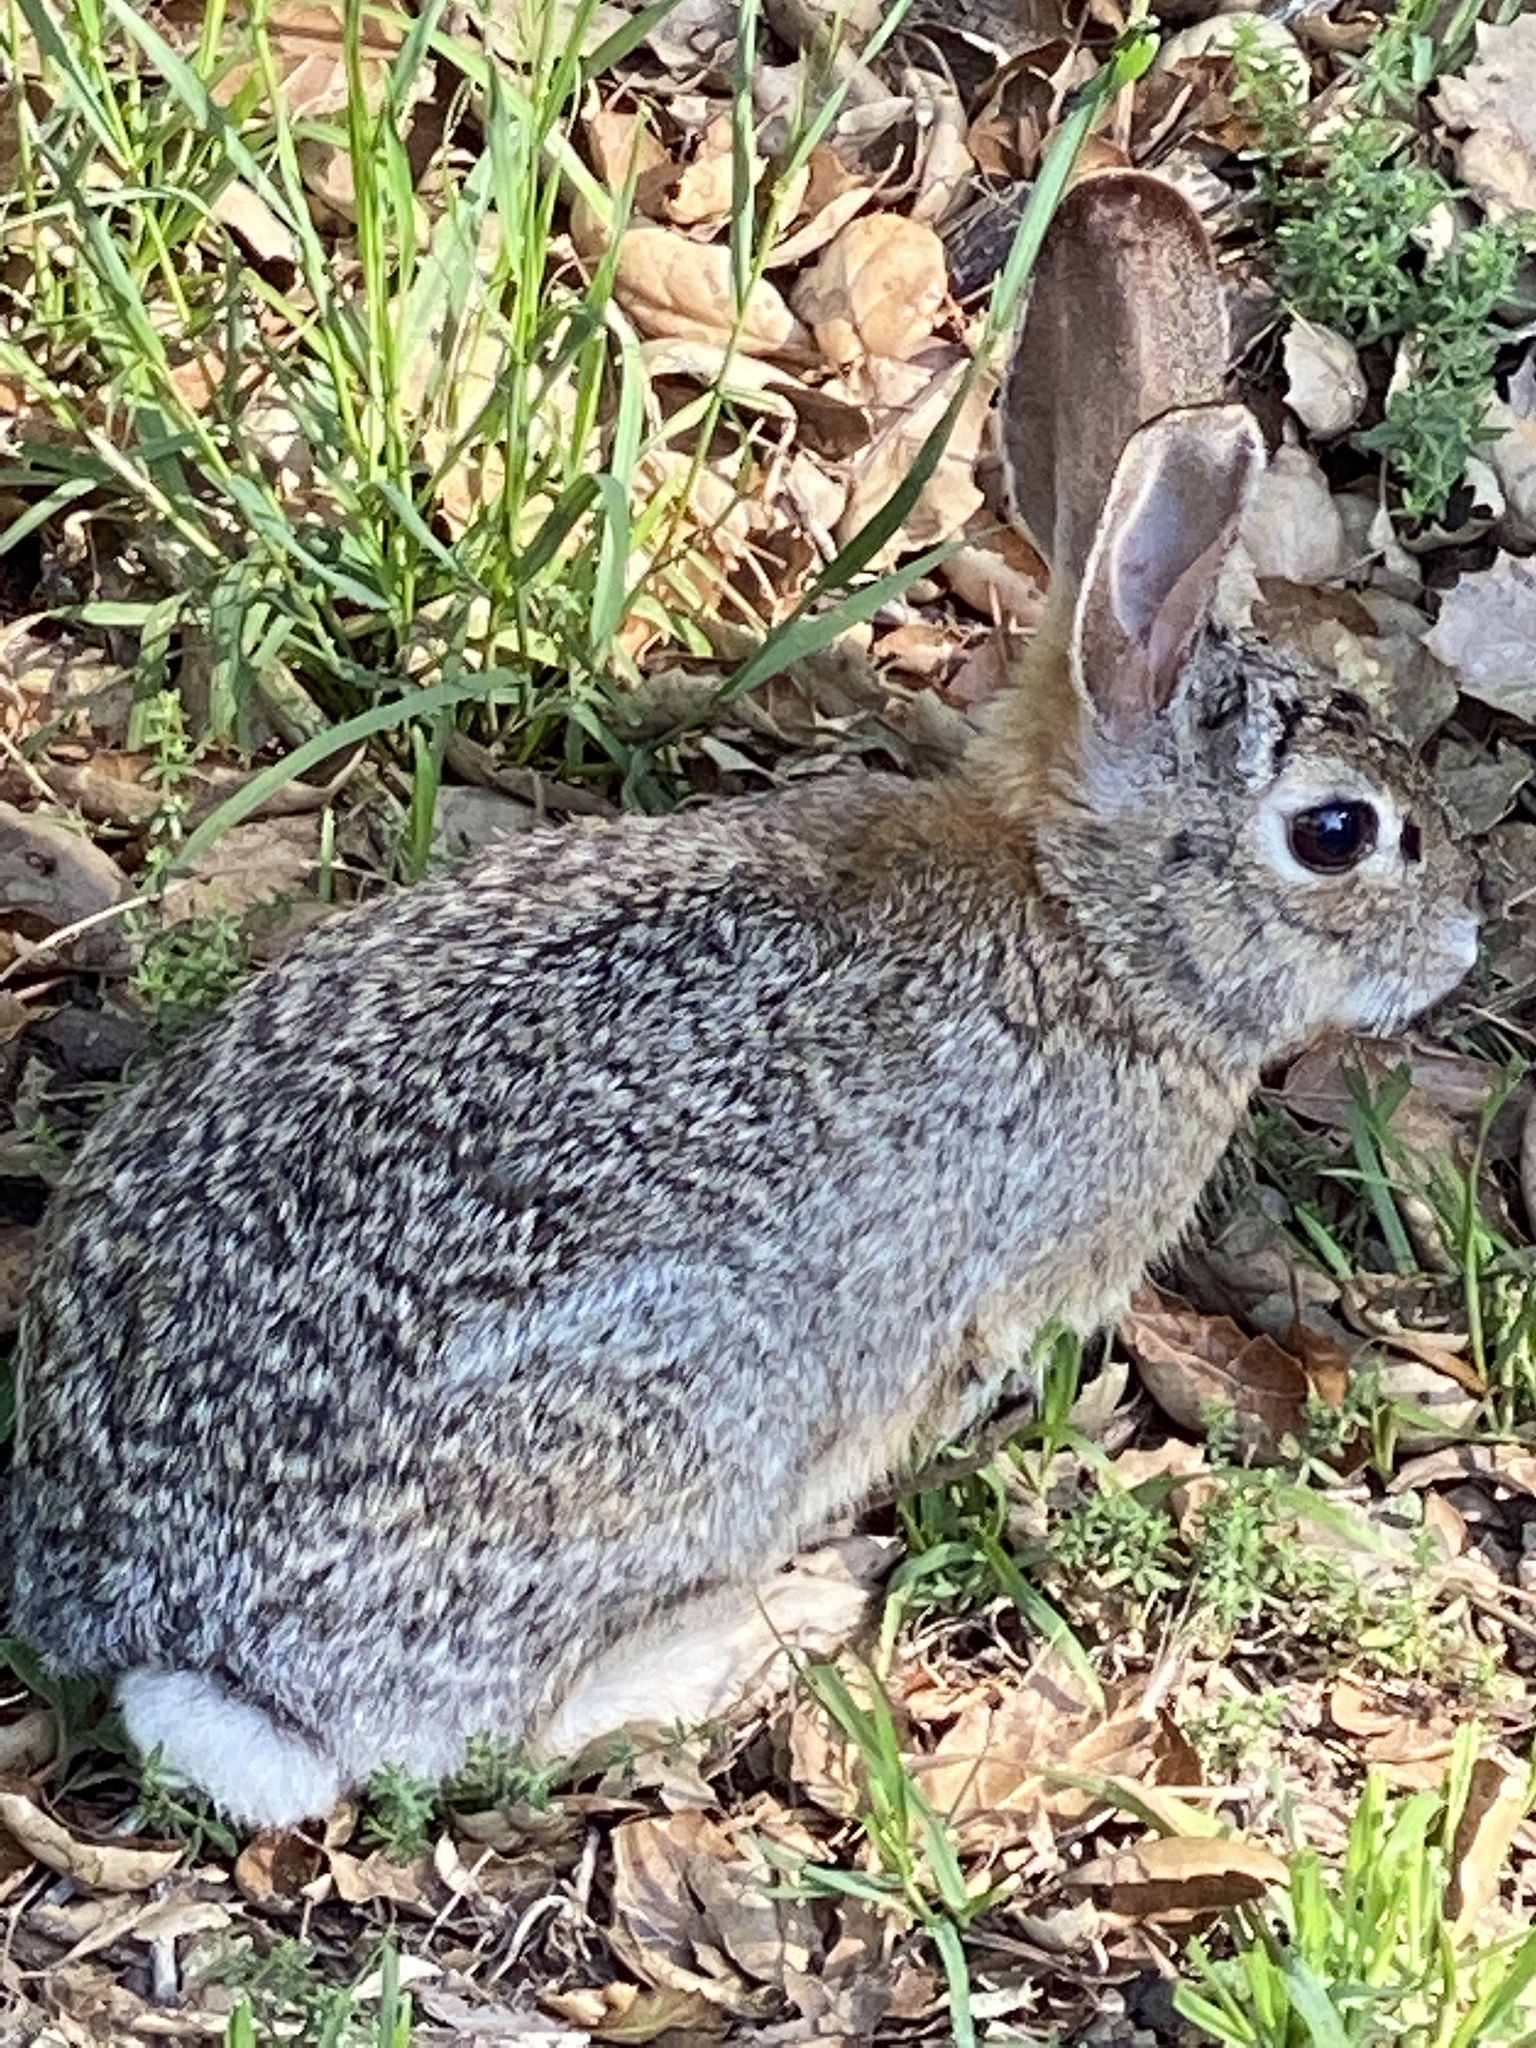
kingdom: Animalia
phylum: Chordata
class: Mammalia
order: Lagomorpha
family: Leporidae
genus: Sylvilagus
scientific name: Sylvilagus audubonii
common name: Desert cottontail
